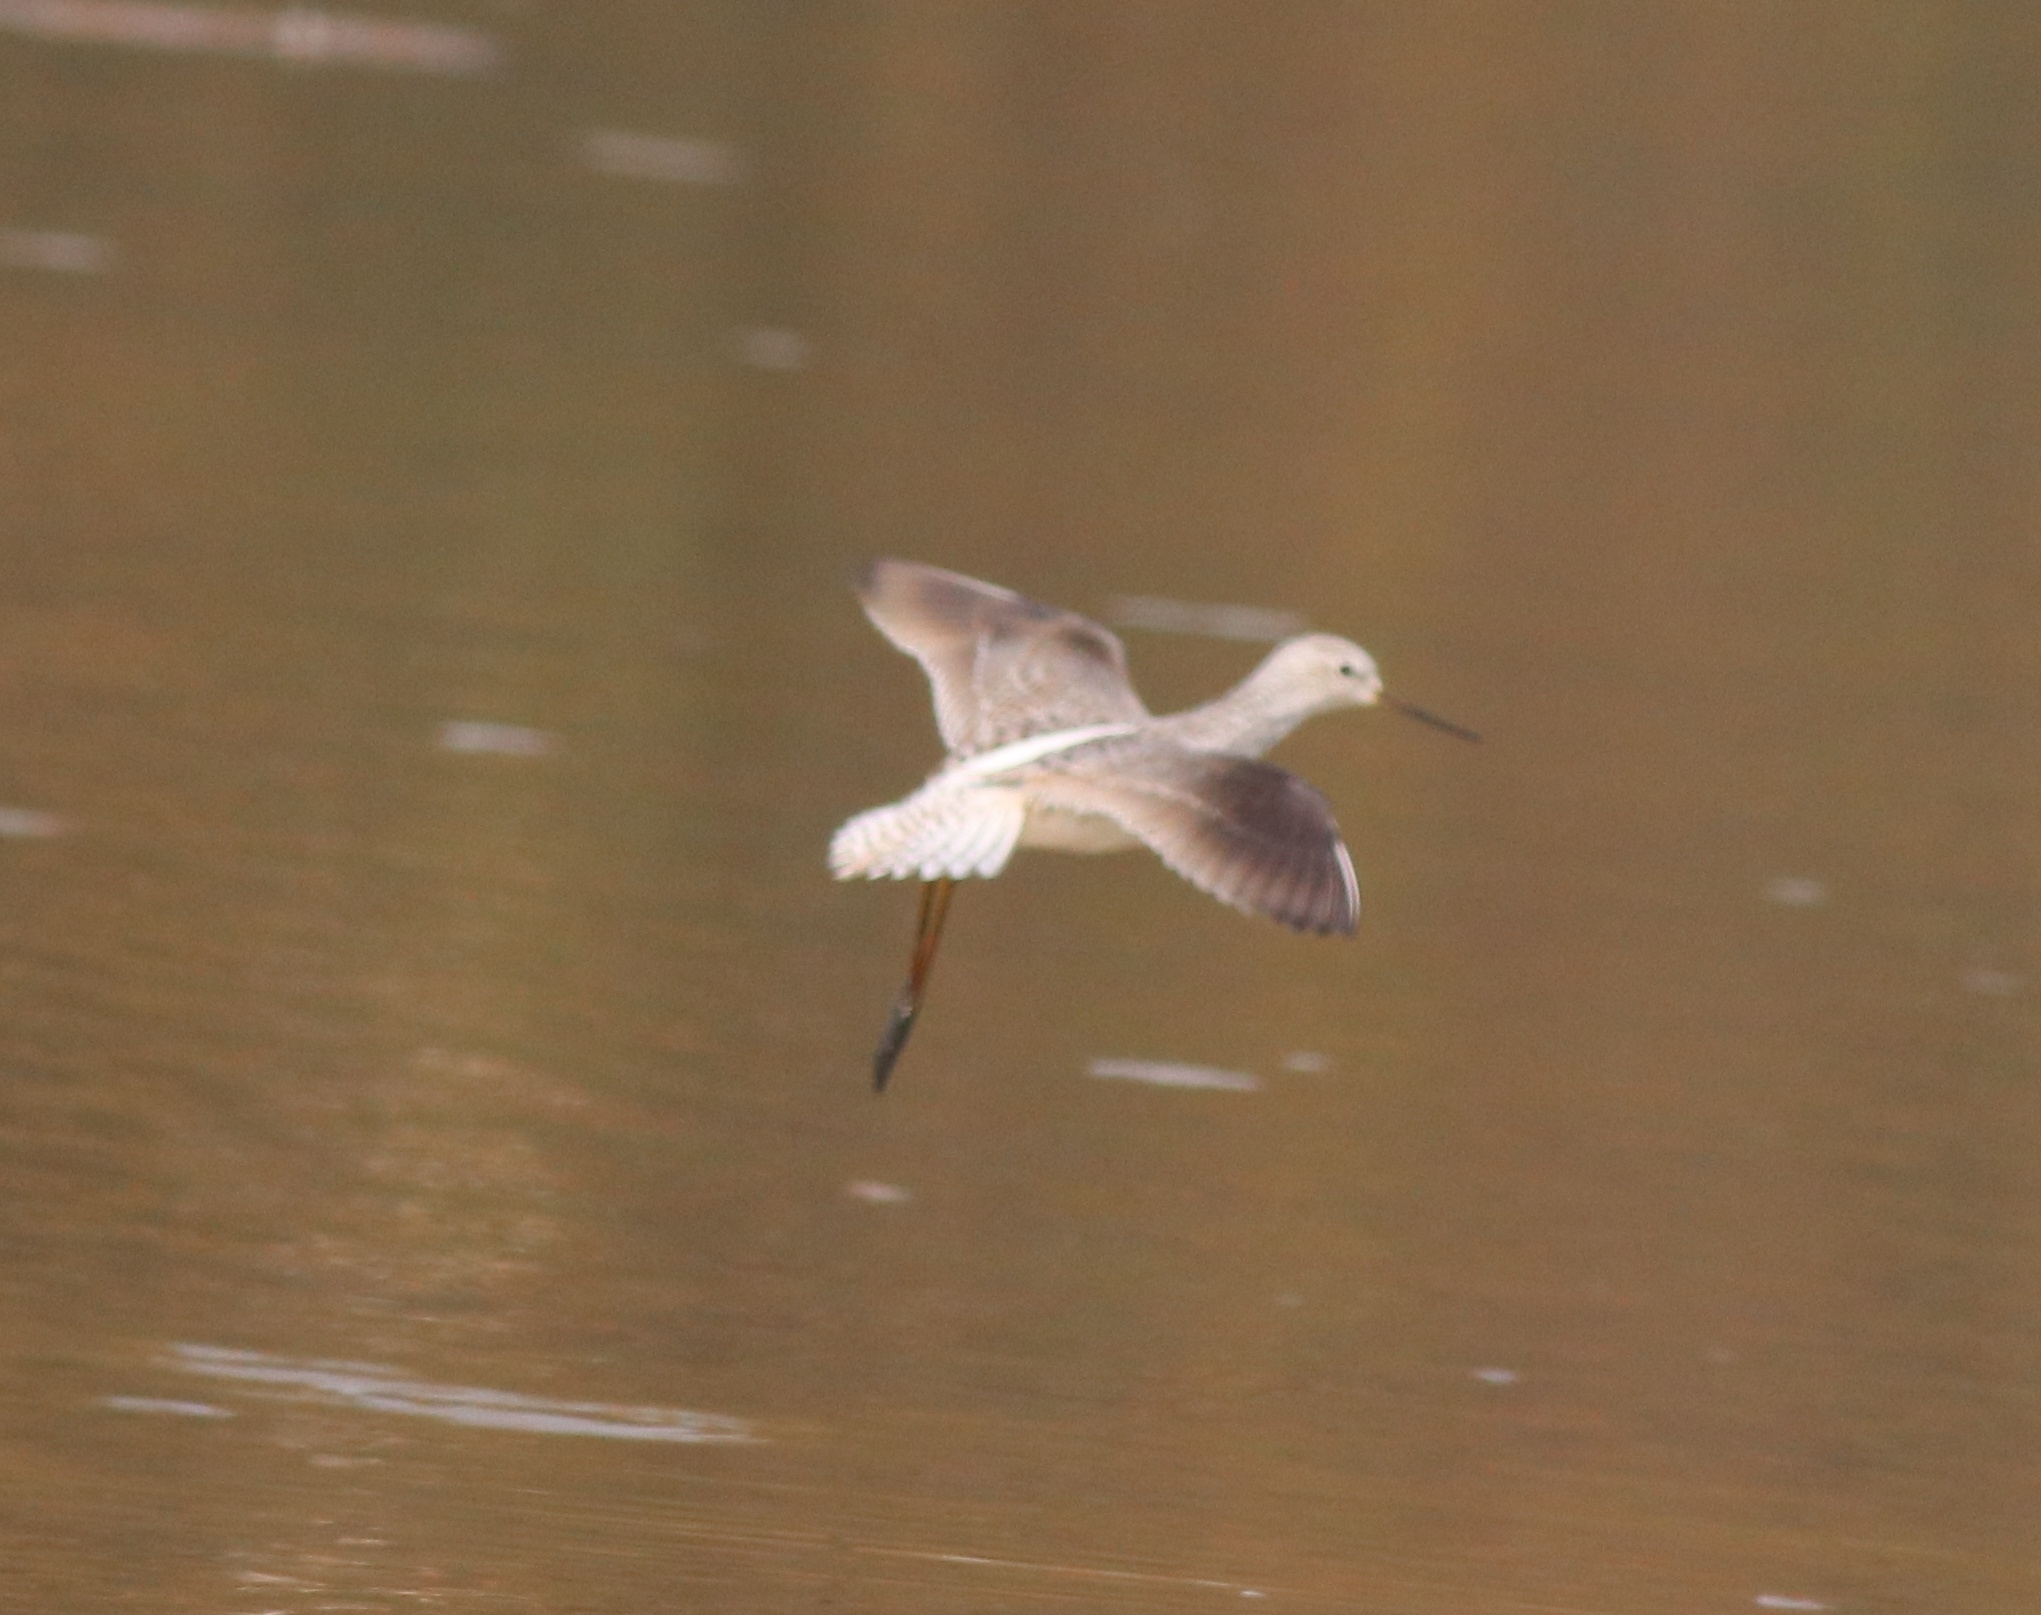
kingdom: Animalia
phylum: Chordata
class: Aves
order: Charadriiformes
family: Scolopacidae
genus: Tringa
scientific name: Tringa stagnatilis
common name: Marsh sandpiper
